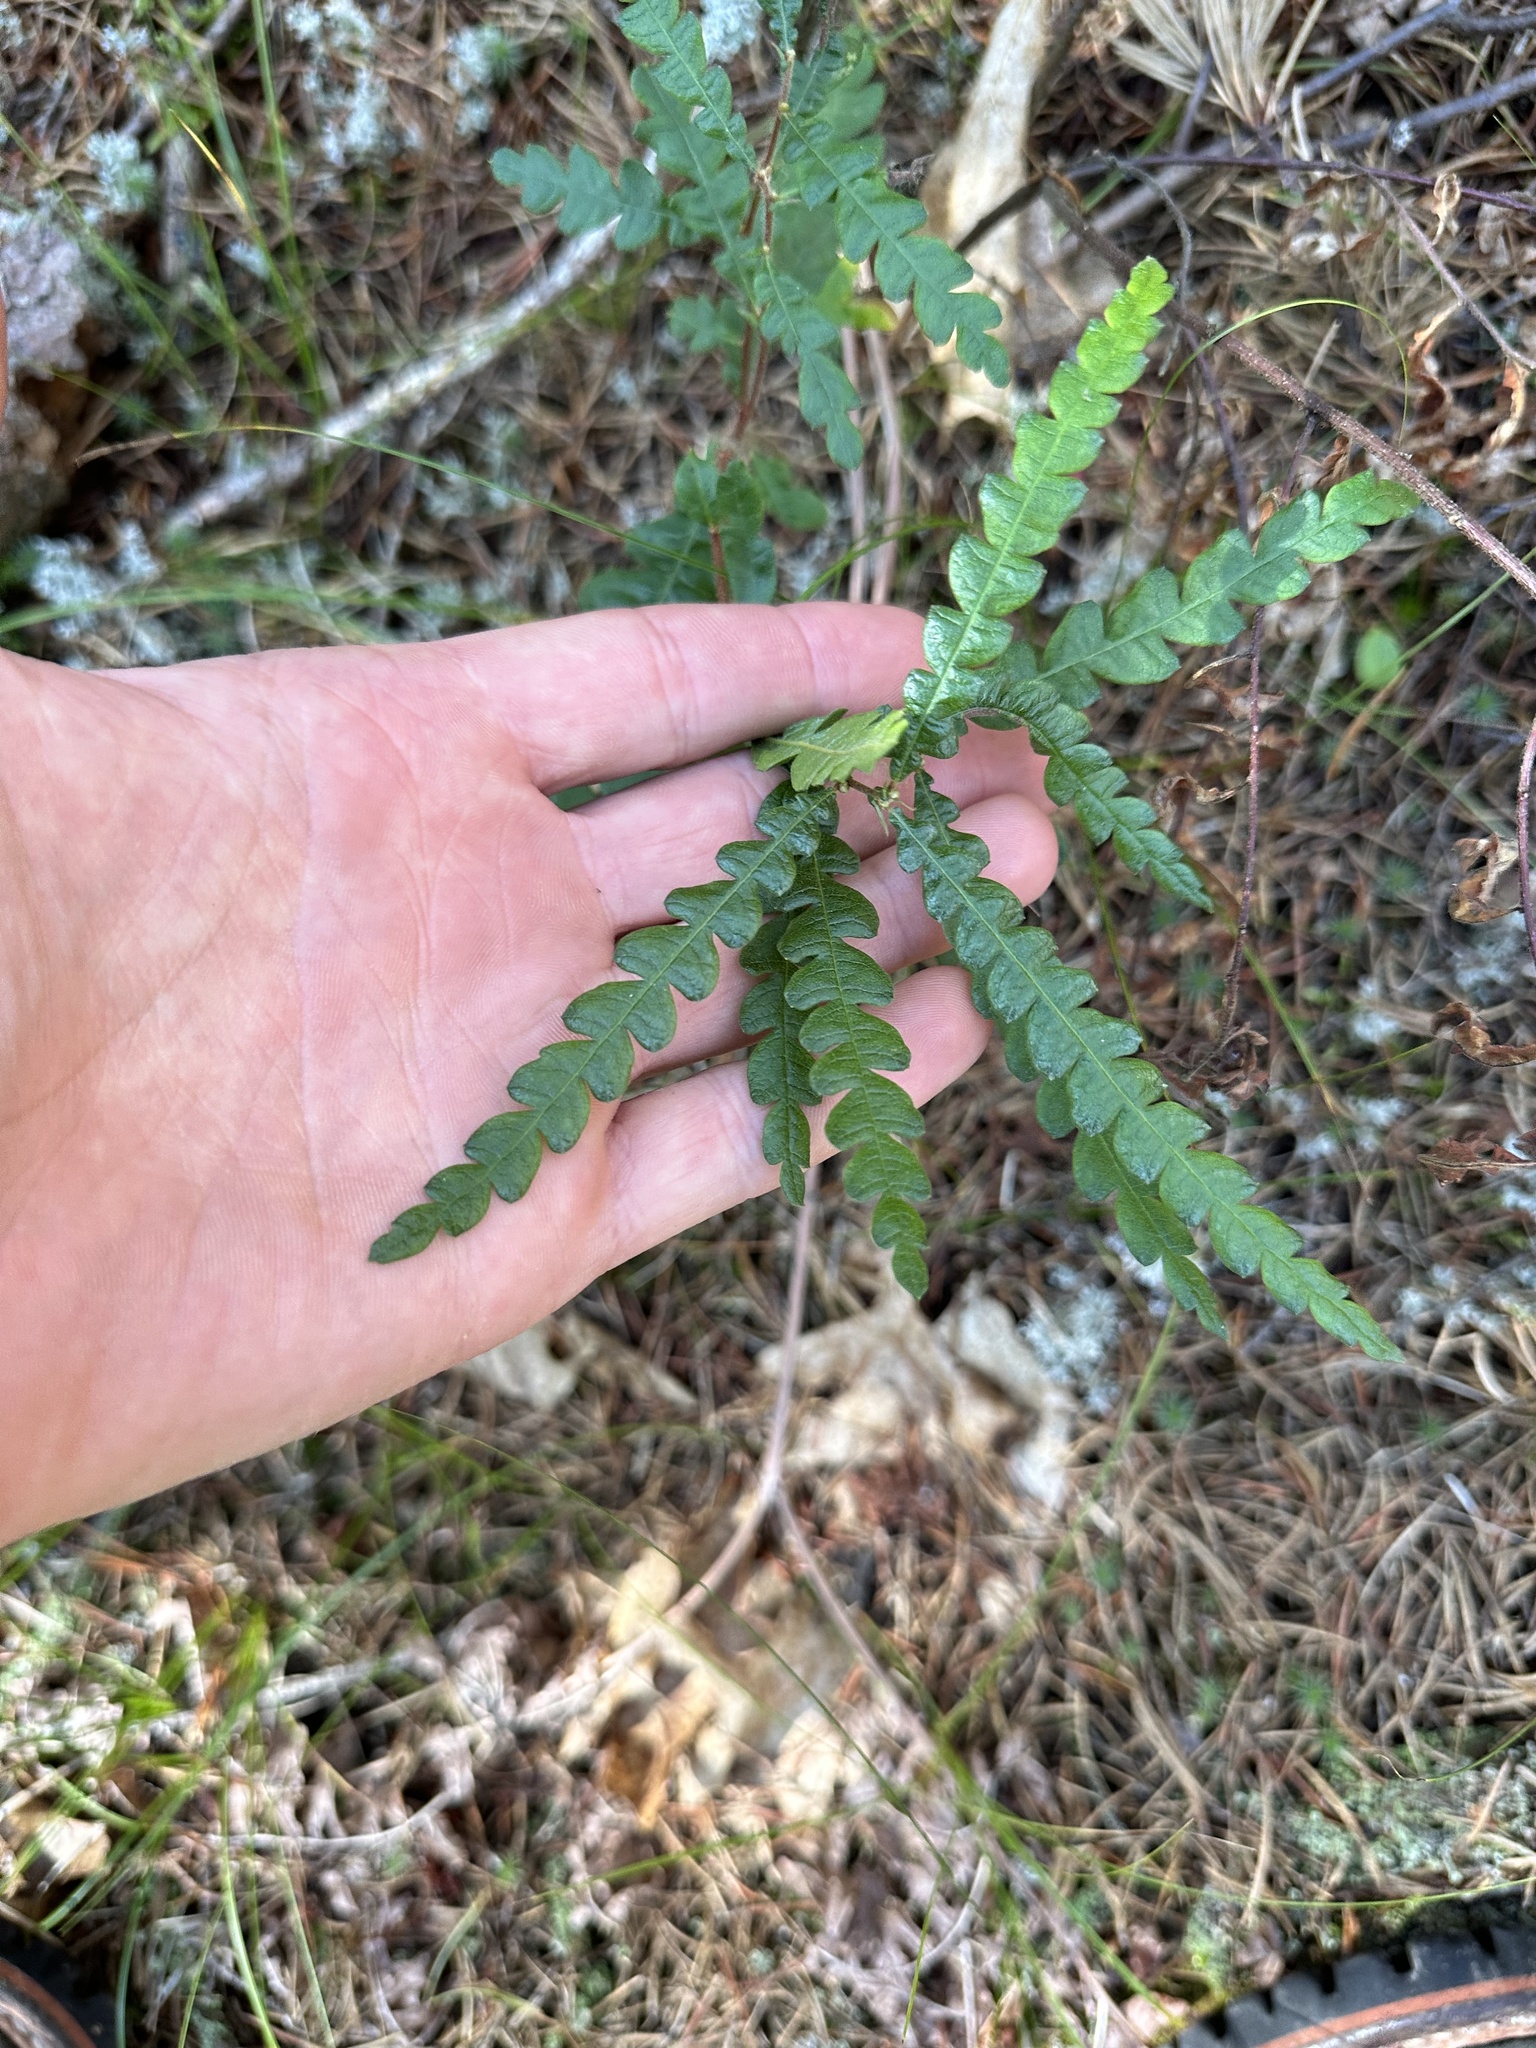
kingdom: Plantae
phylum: Tracheophyta
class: Magnoliopsida
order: Fagales
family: Myricaceae
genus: Comptonia
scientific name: Comptonia peregrina
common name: Sweet-fern
